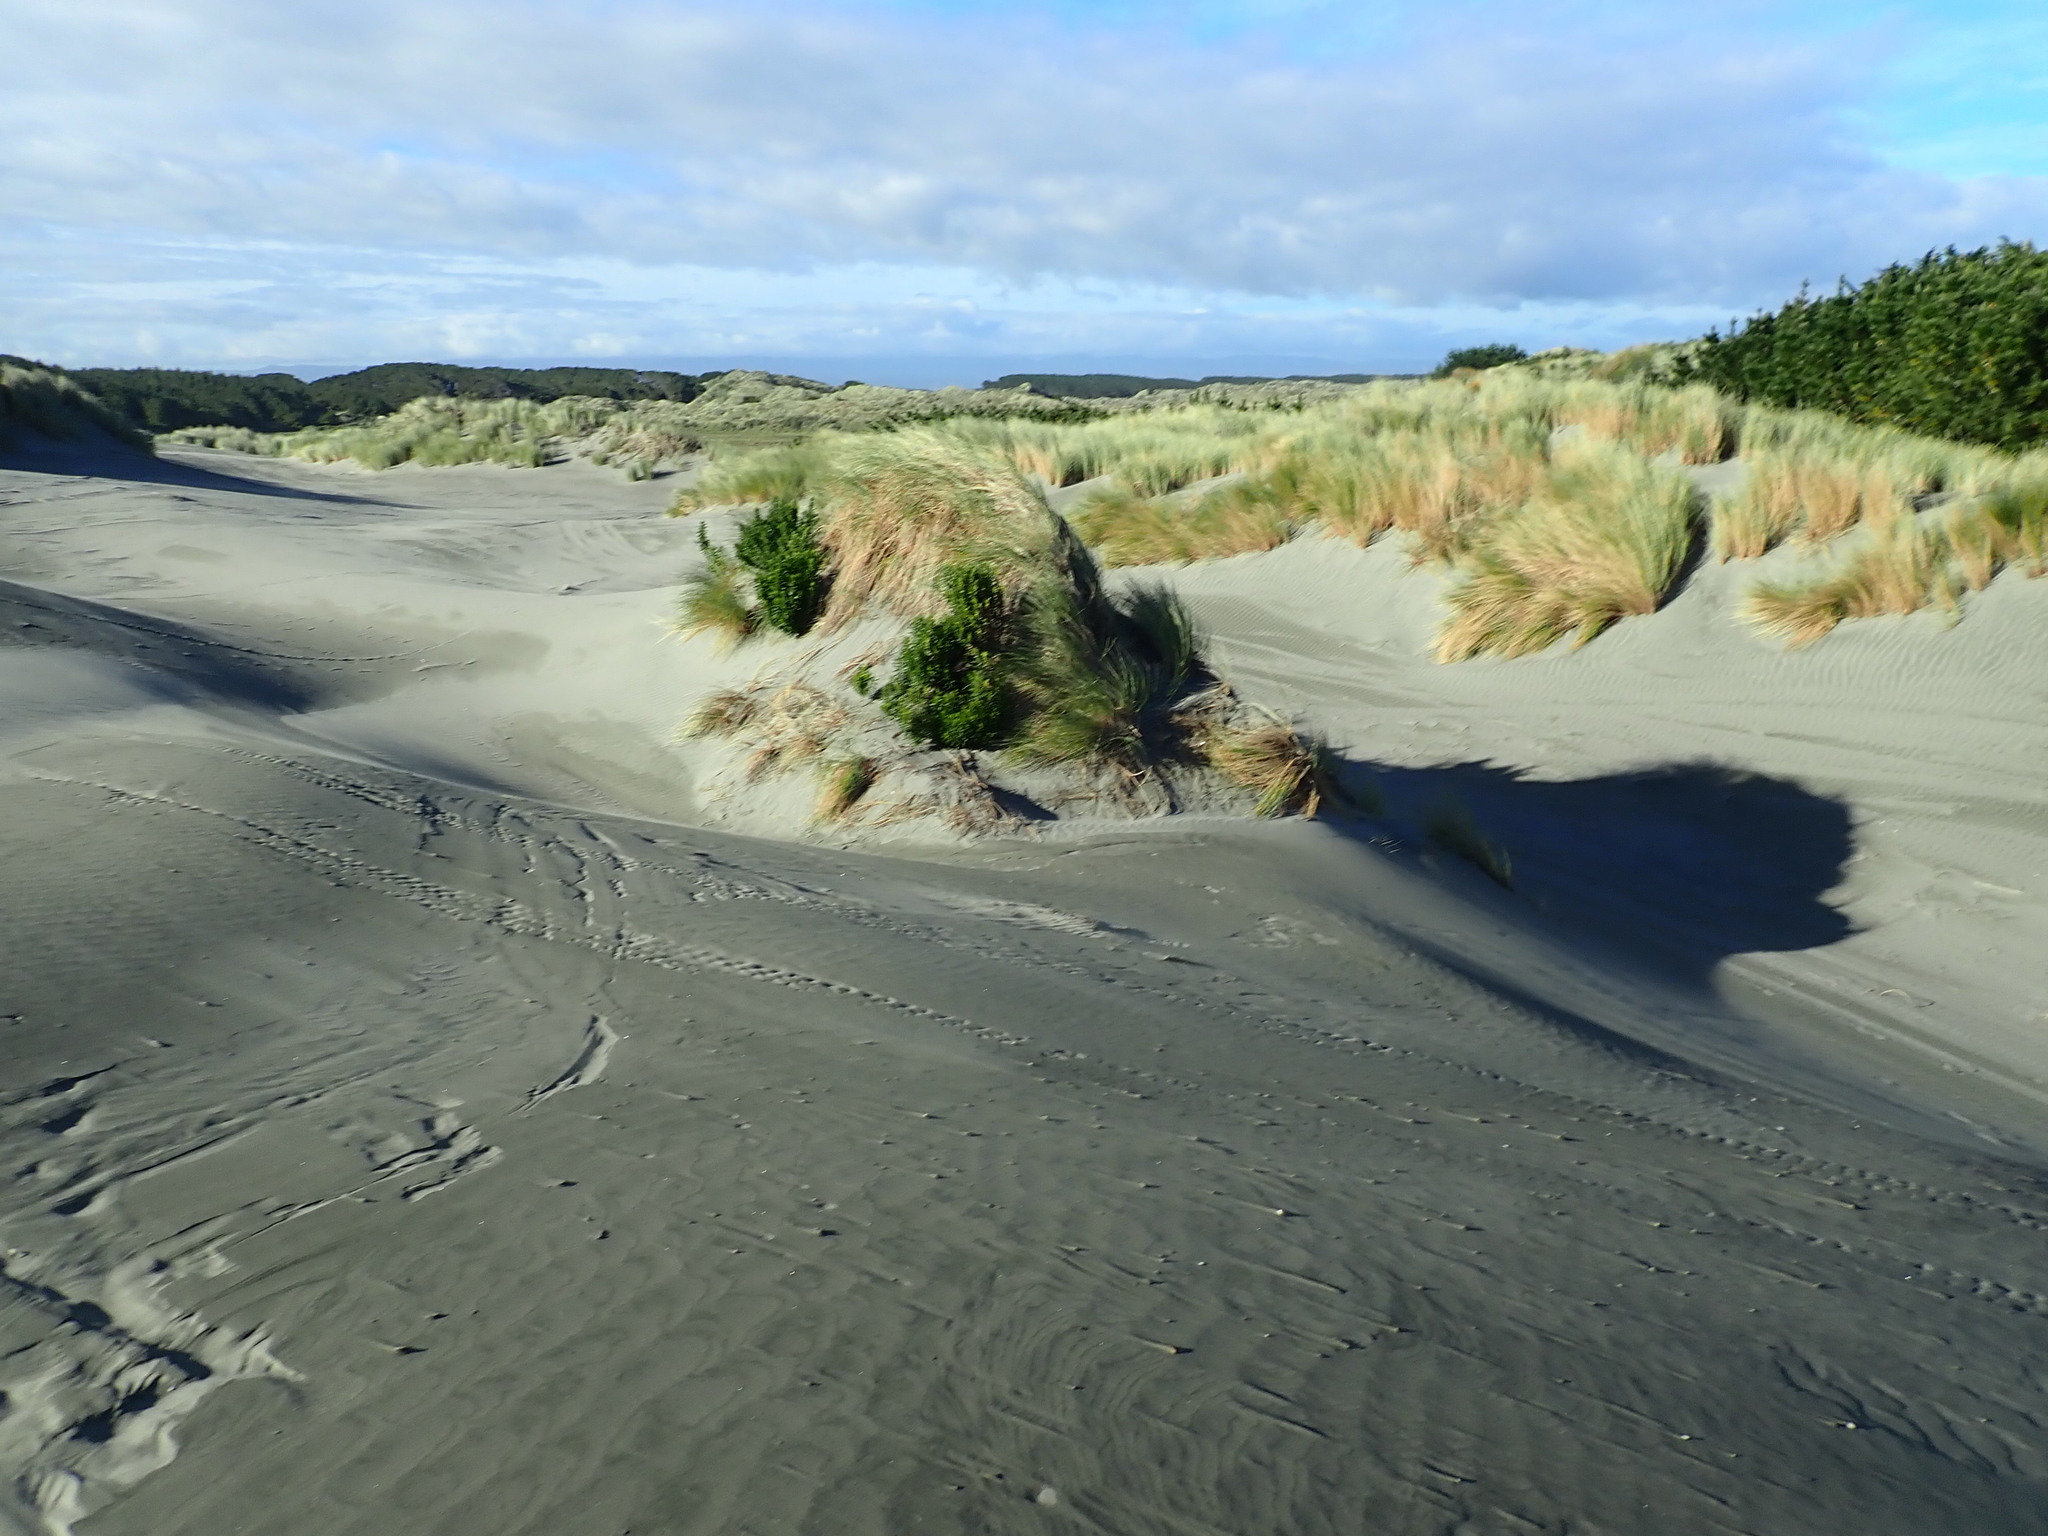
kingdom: Plantae
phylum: Tracheophyta
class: Magnoliopsida
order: Asterales
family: Asteraceae
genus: Senecio
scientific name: Senecio glastifolius
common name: Woad-leaved ragwort
